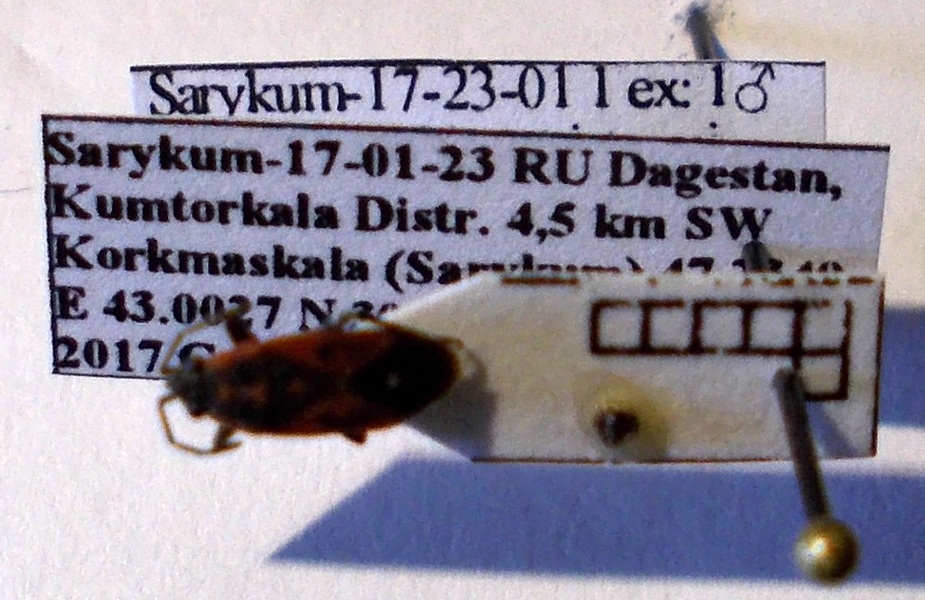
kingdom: Animalia
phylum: Arthropoda
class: Insecta
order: Hemiptera
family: Lygaeidae
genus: Melanocoryphus
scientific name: Melanocoryphus tristrami
